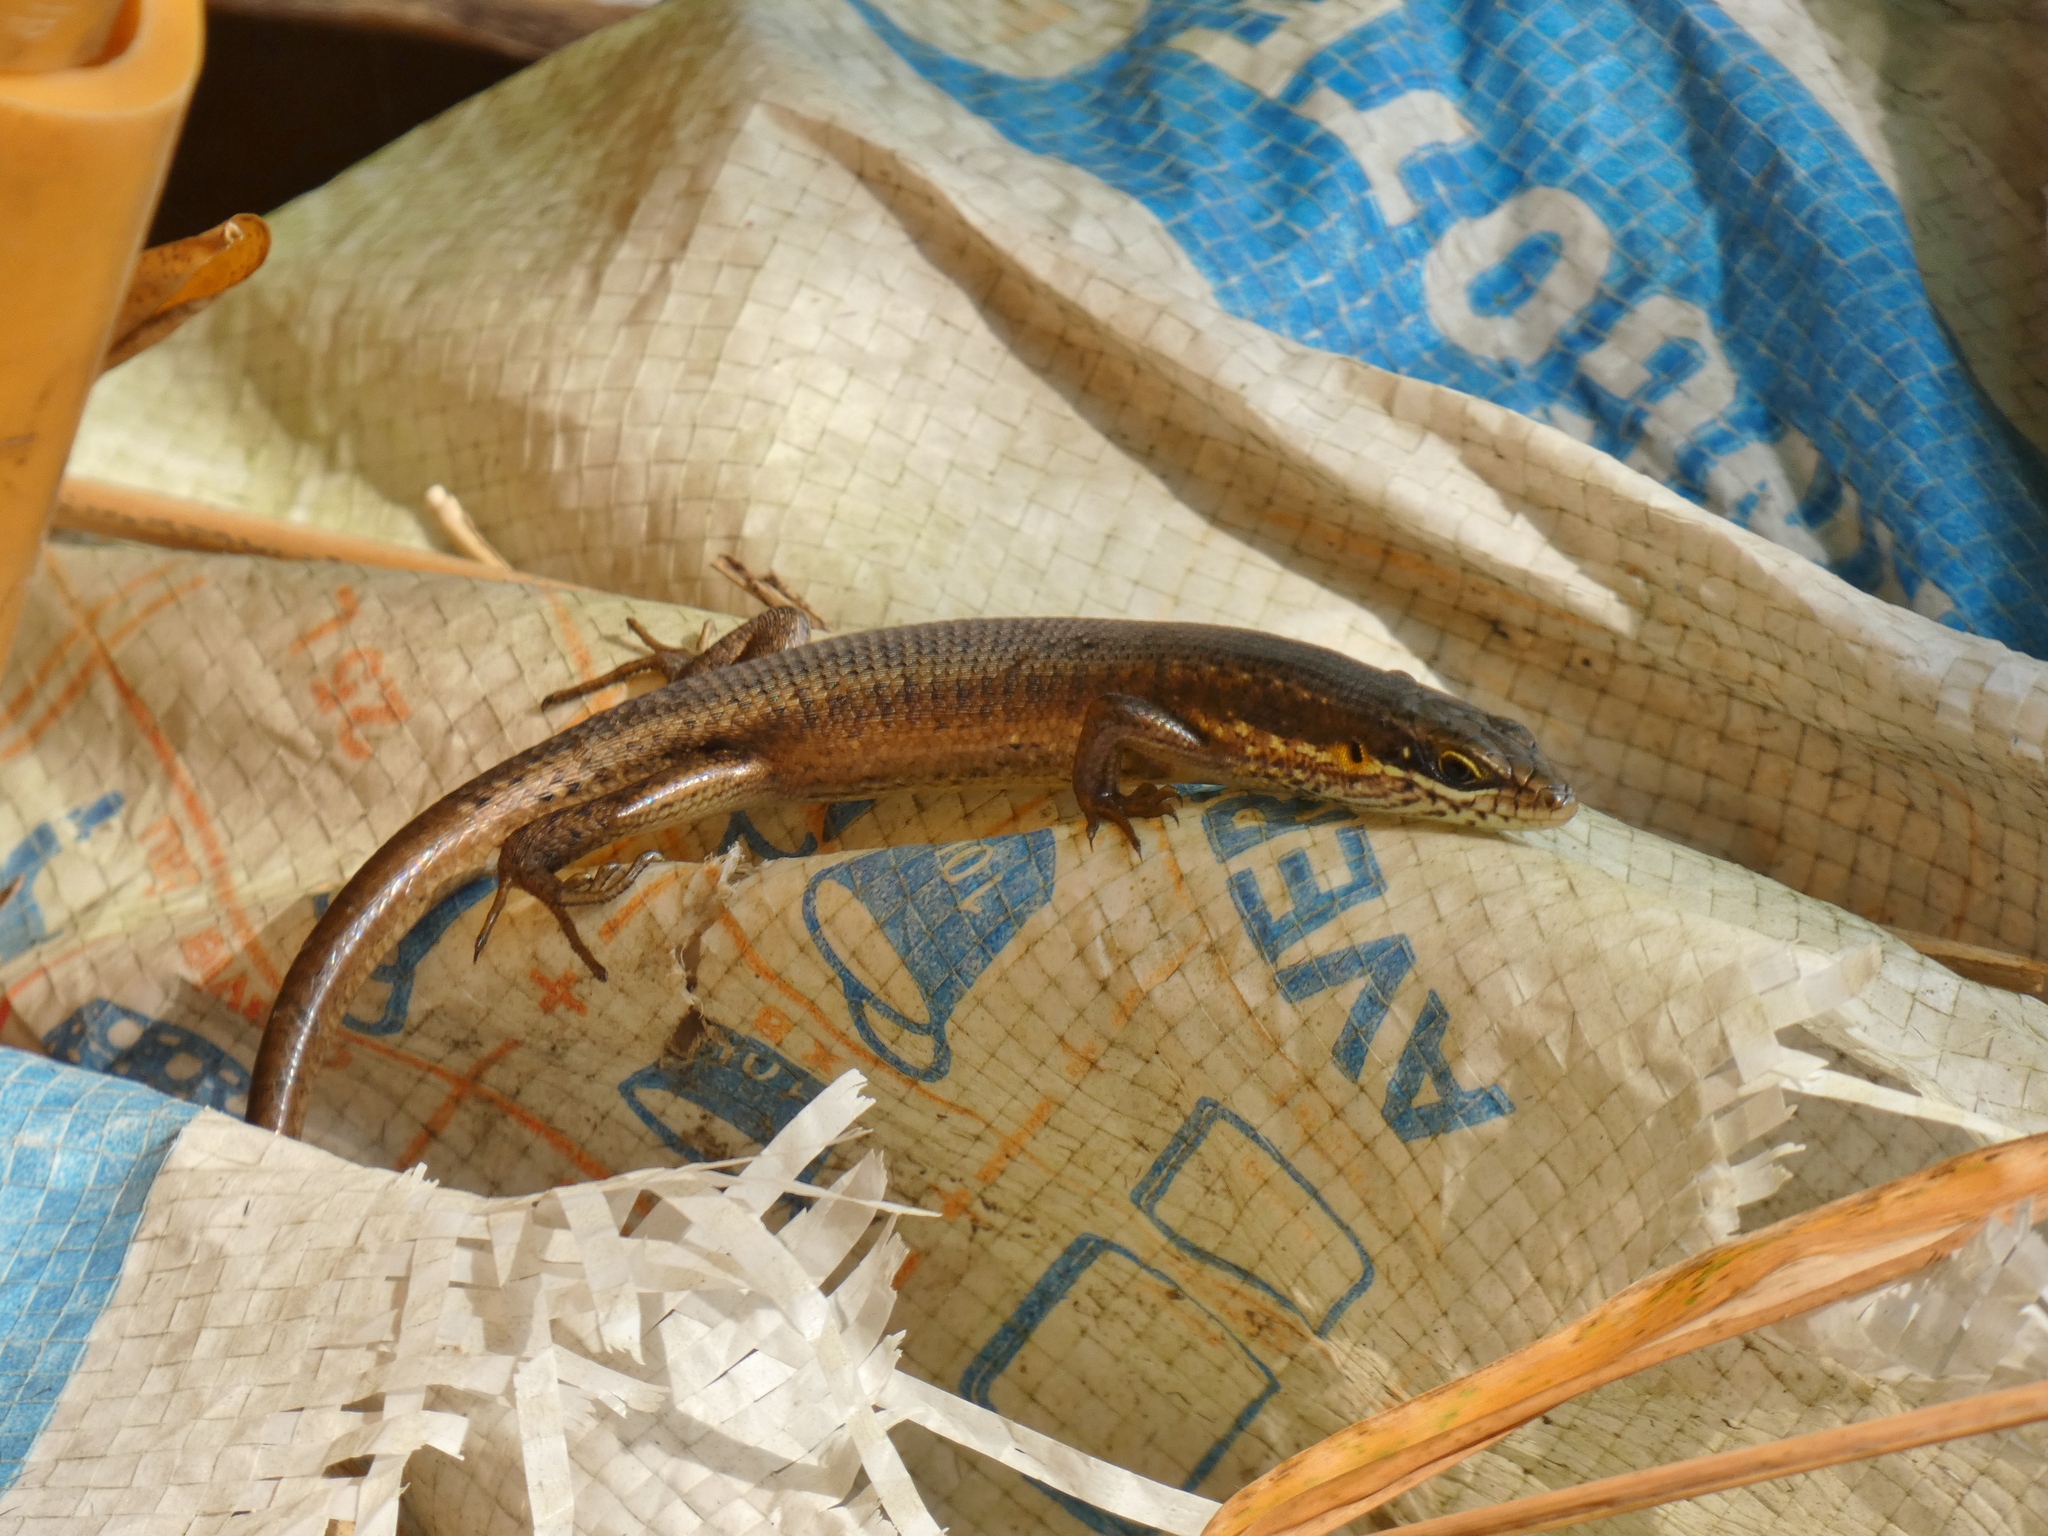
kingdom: Animalia
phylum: Chordata
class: Squamata
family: Scincidae
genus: Trachylepis
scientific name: Trachylepis maculilabris
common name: Speckle-lipped mabuya
